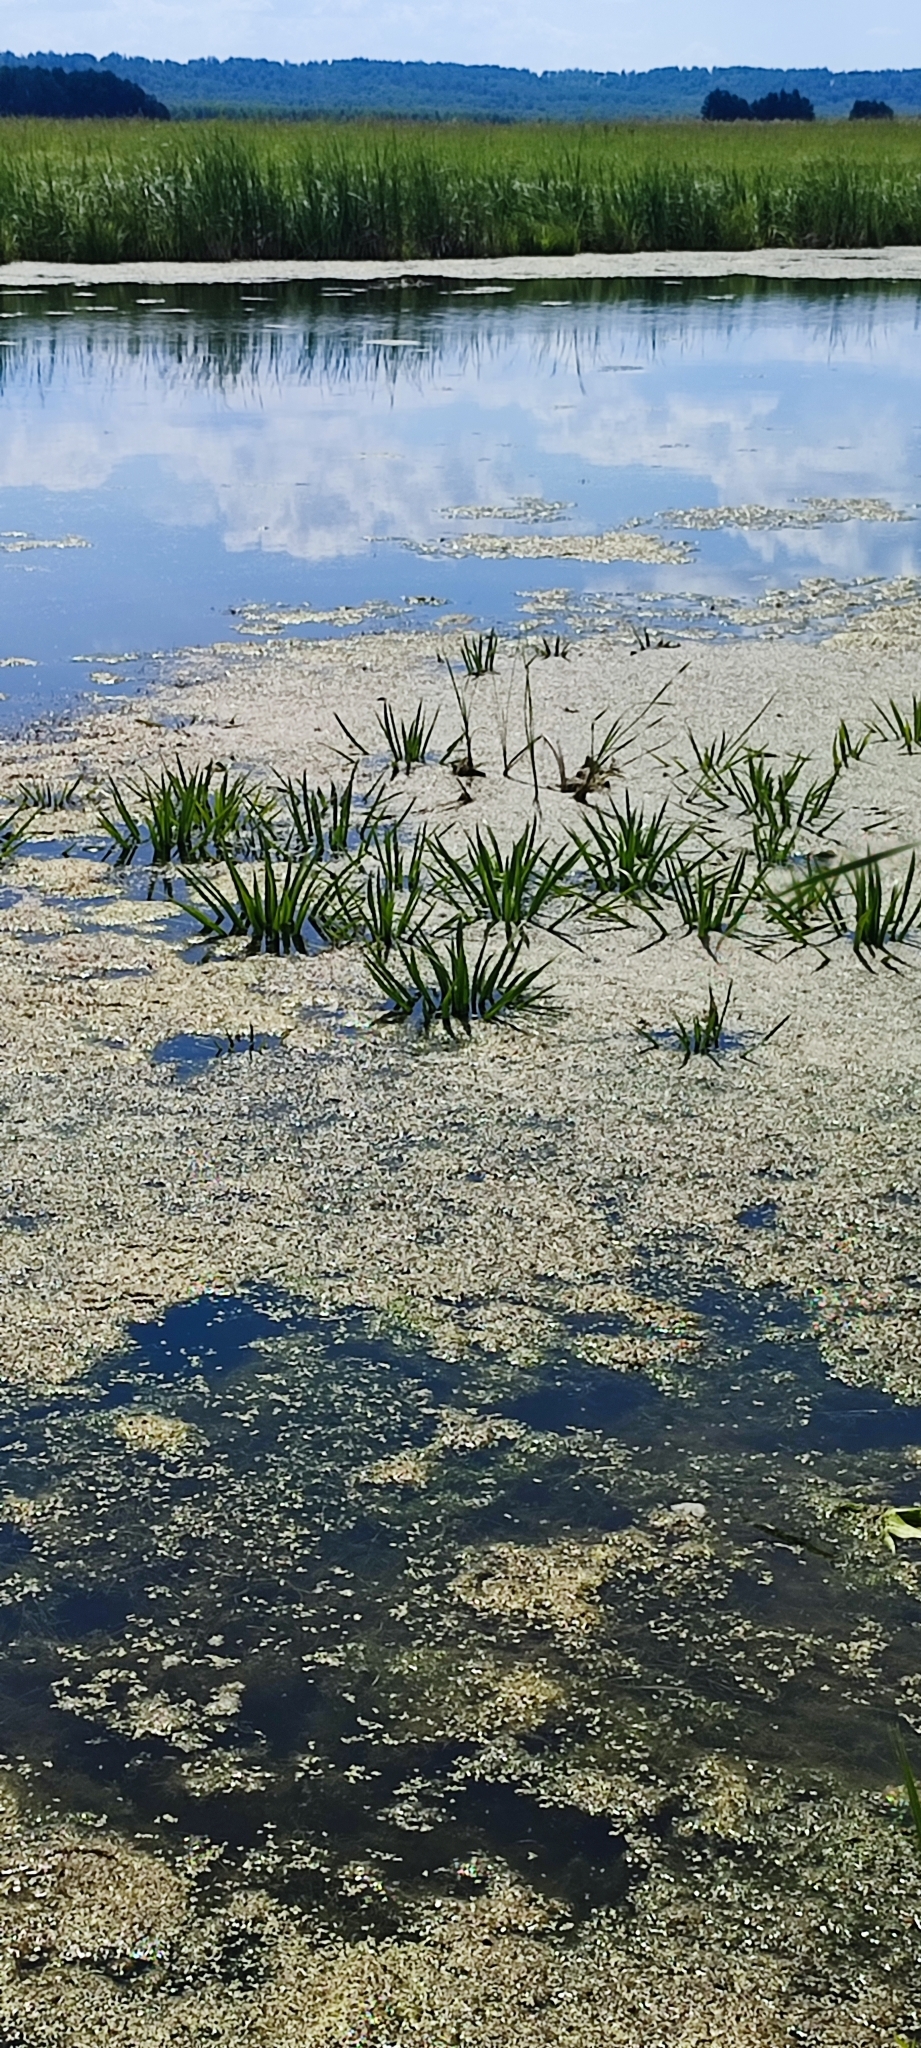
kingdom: Plantae
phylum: Tracheophyta
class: Liliopsida
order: Alismatales
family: Hydrocharitaceae
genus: Stratiotes
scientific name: Stratiotes aloides
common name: Water-soldier
